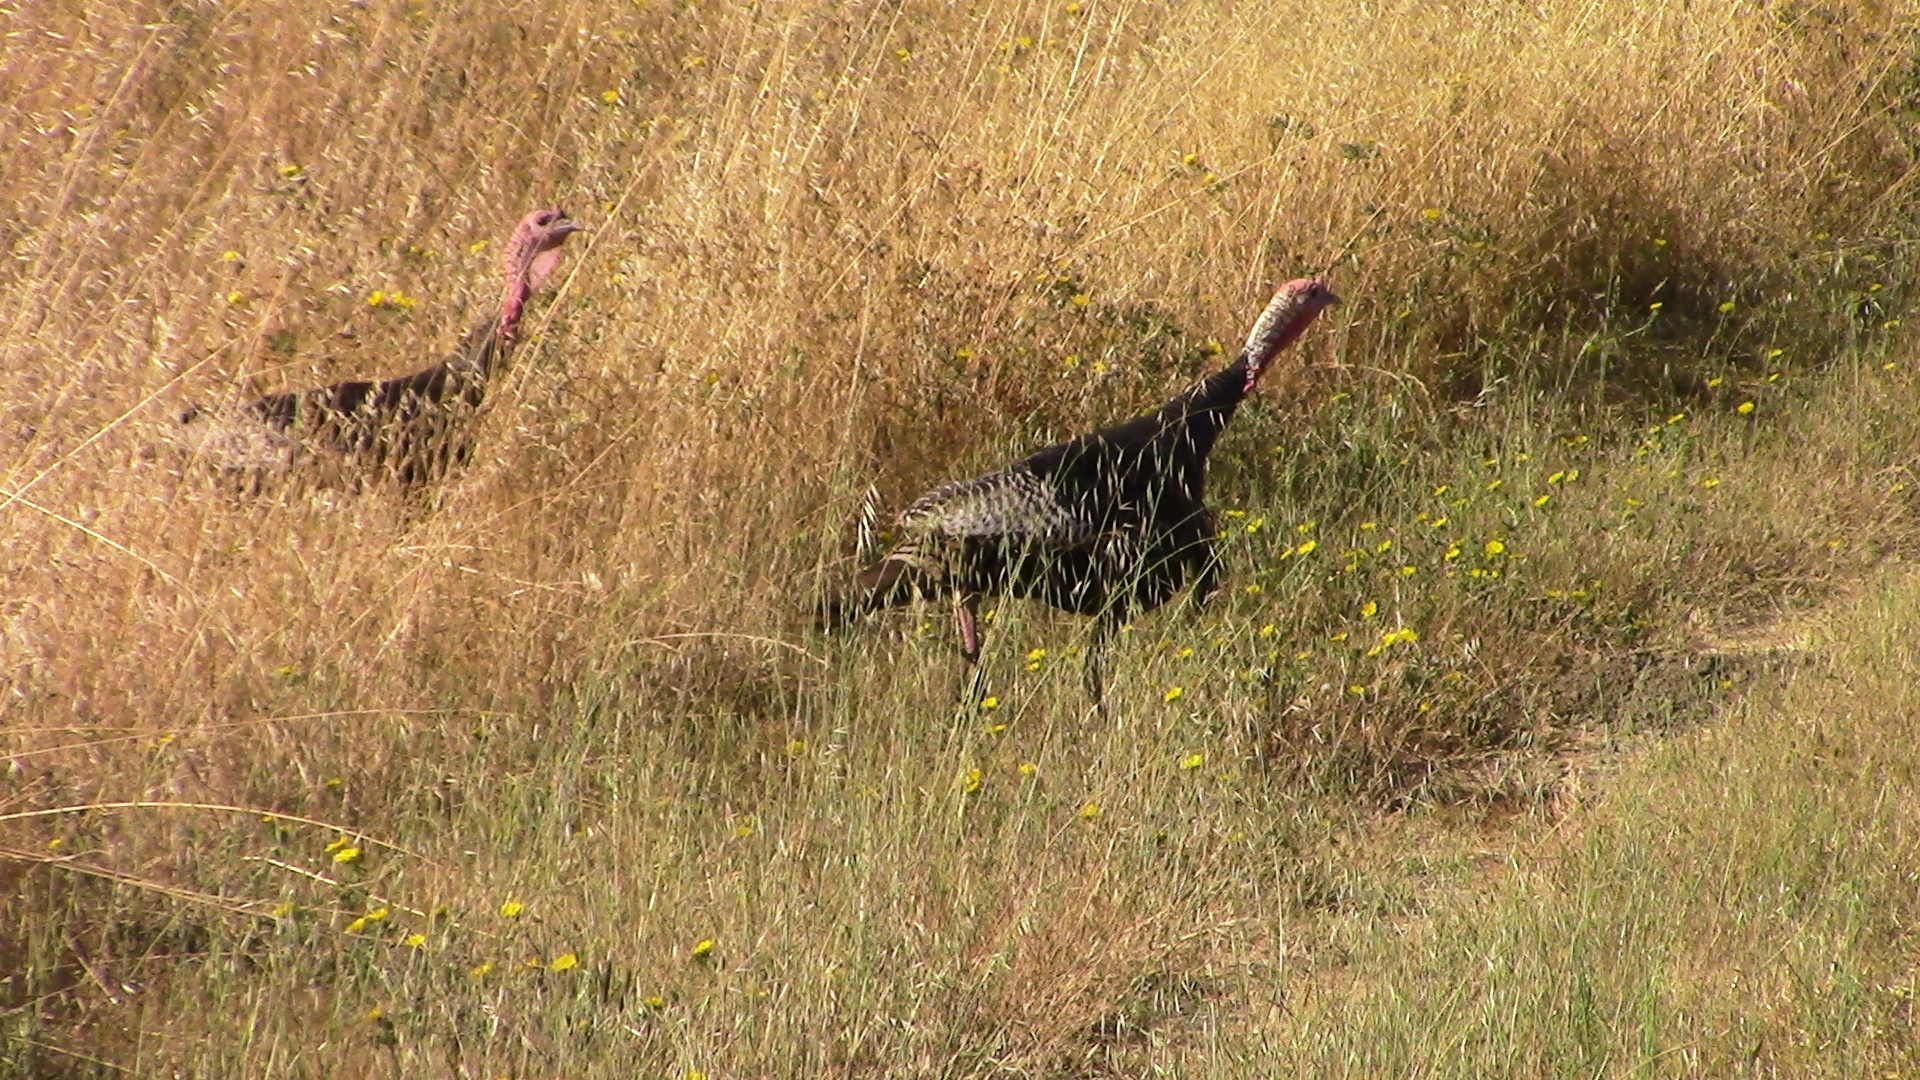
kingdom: Animalia
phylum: Chordata
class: Aves
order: Galliformes
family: Phasianidae
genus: Meleagris
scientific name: Meleagris gallopavo
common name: Wild turkey
